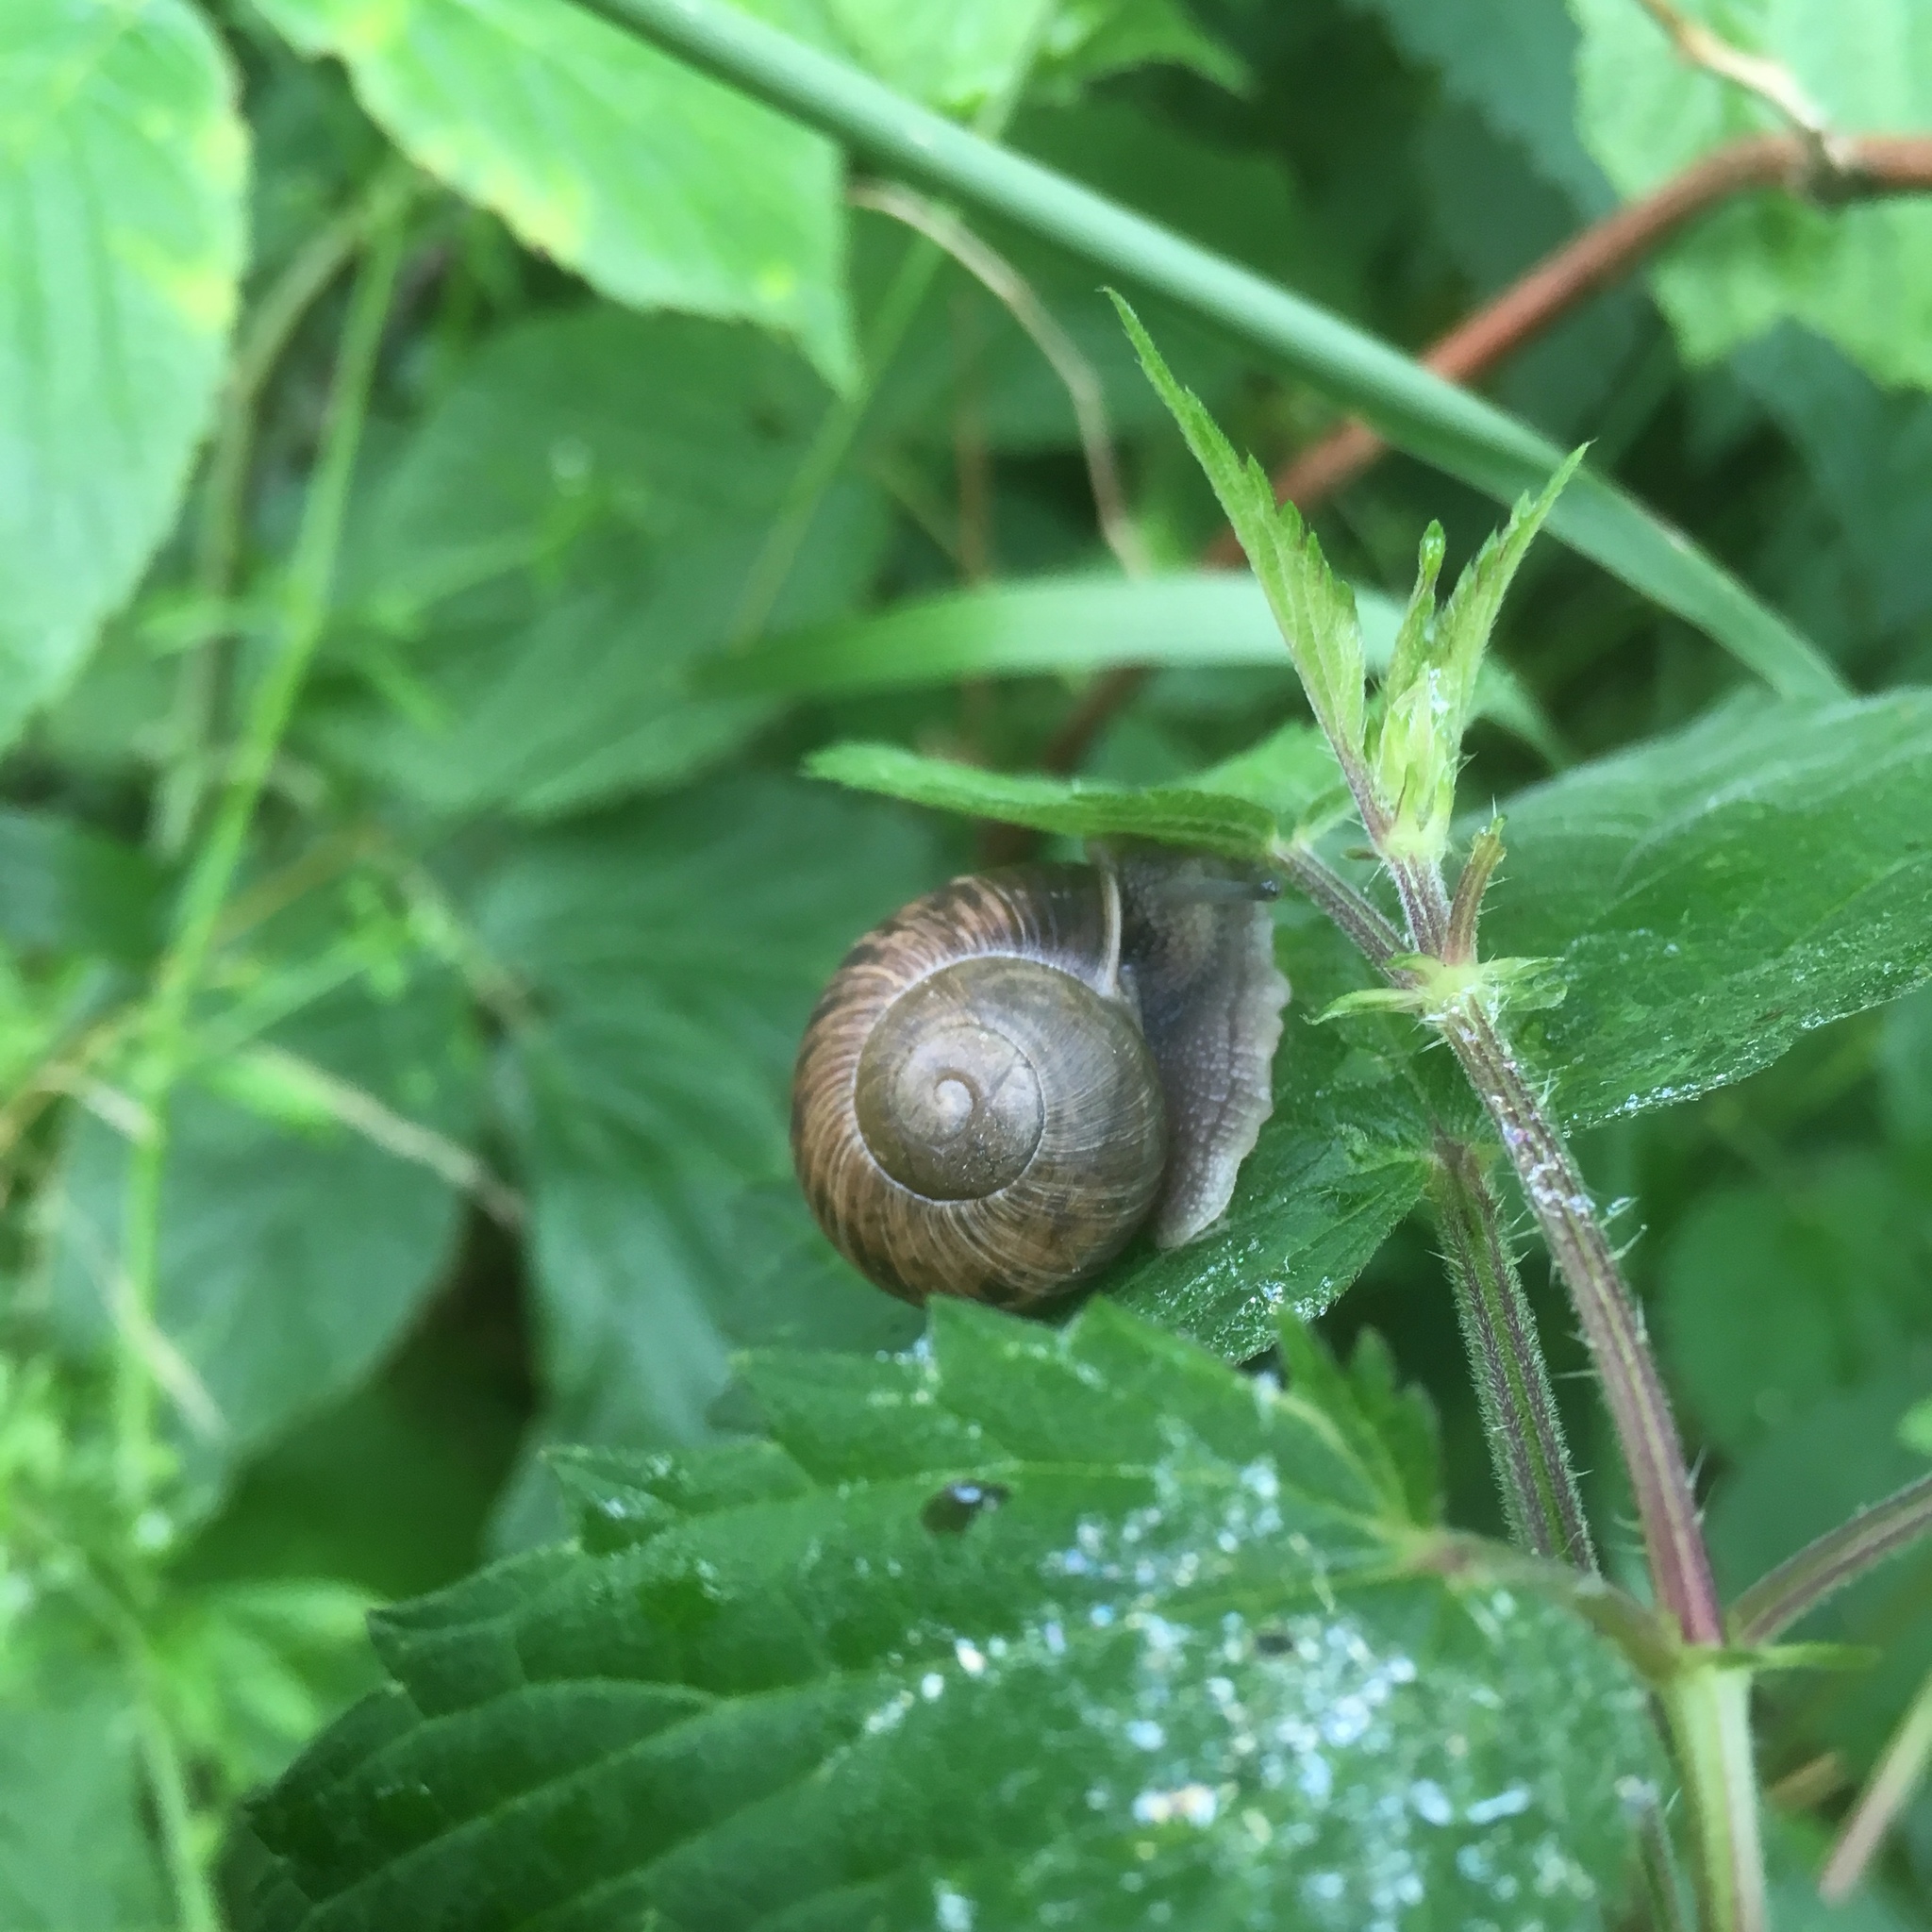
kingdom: Animalia
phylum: Mollusca
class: Gastropoda
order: Stylommatophora
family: Helicidae
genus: Cornu
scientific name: Cornu aspersum
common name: Brown garden snail
